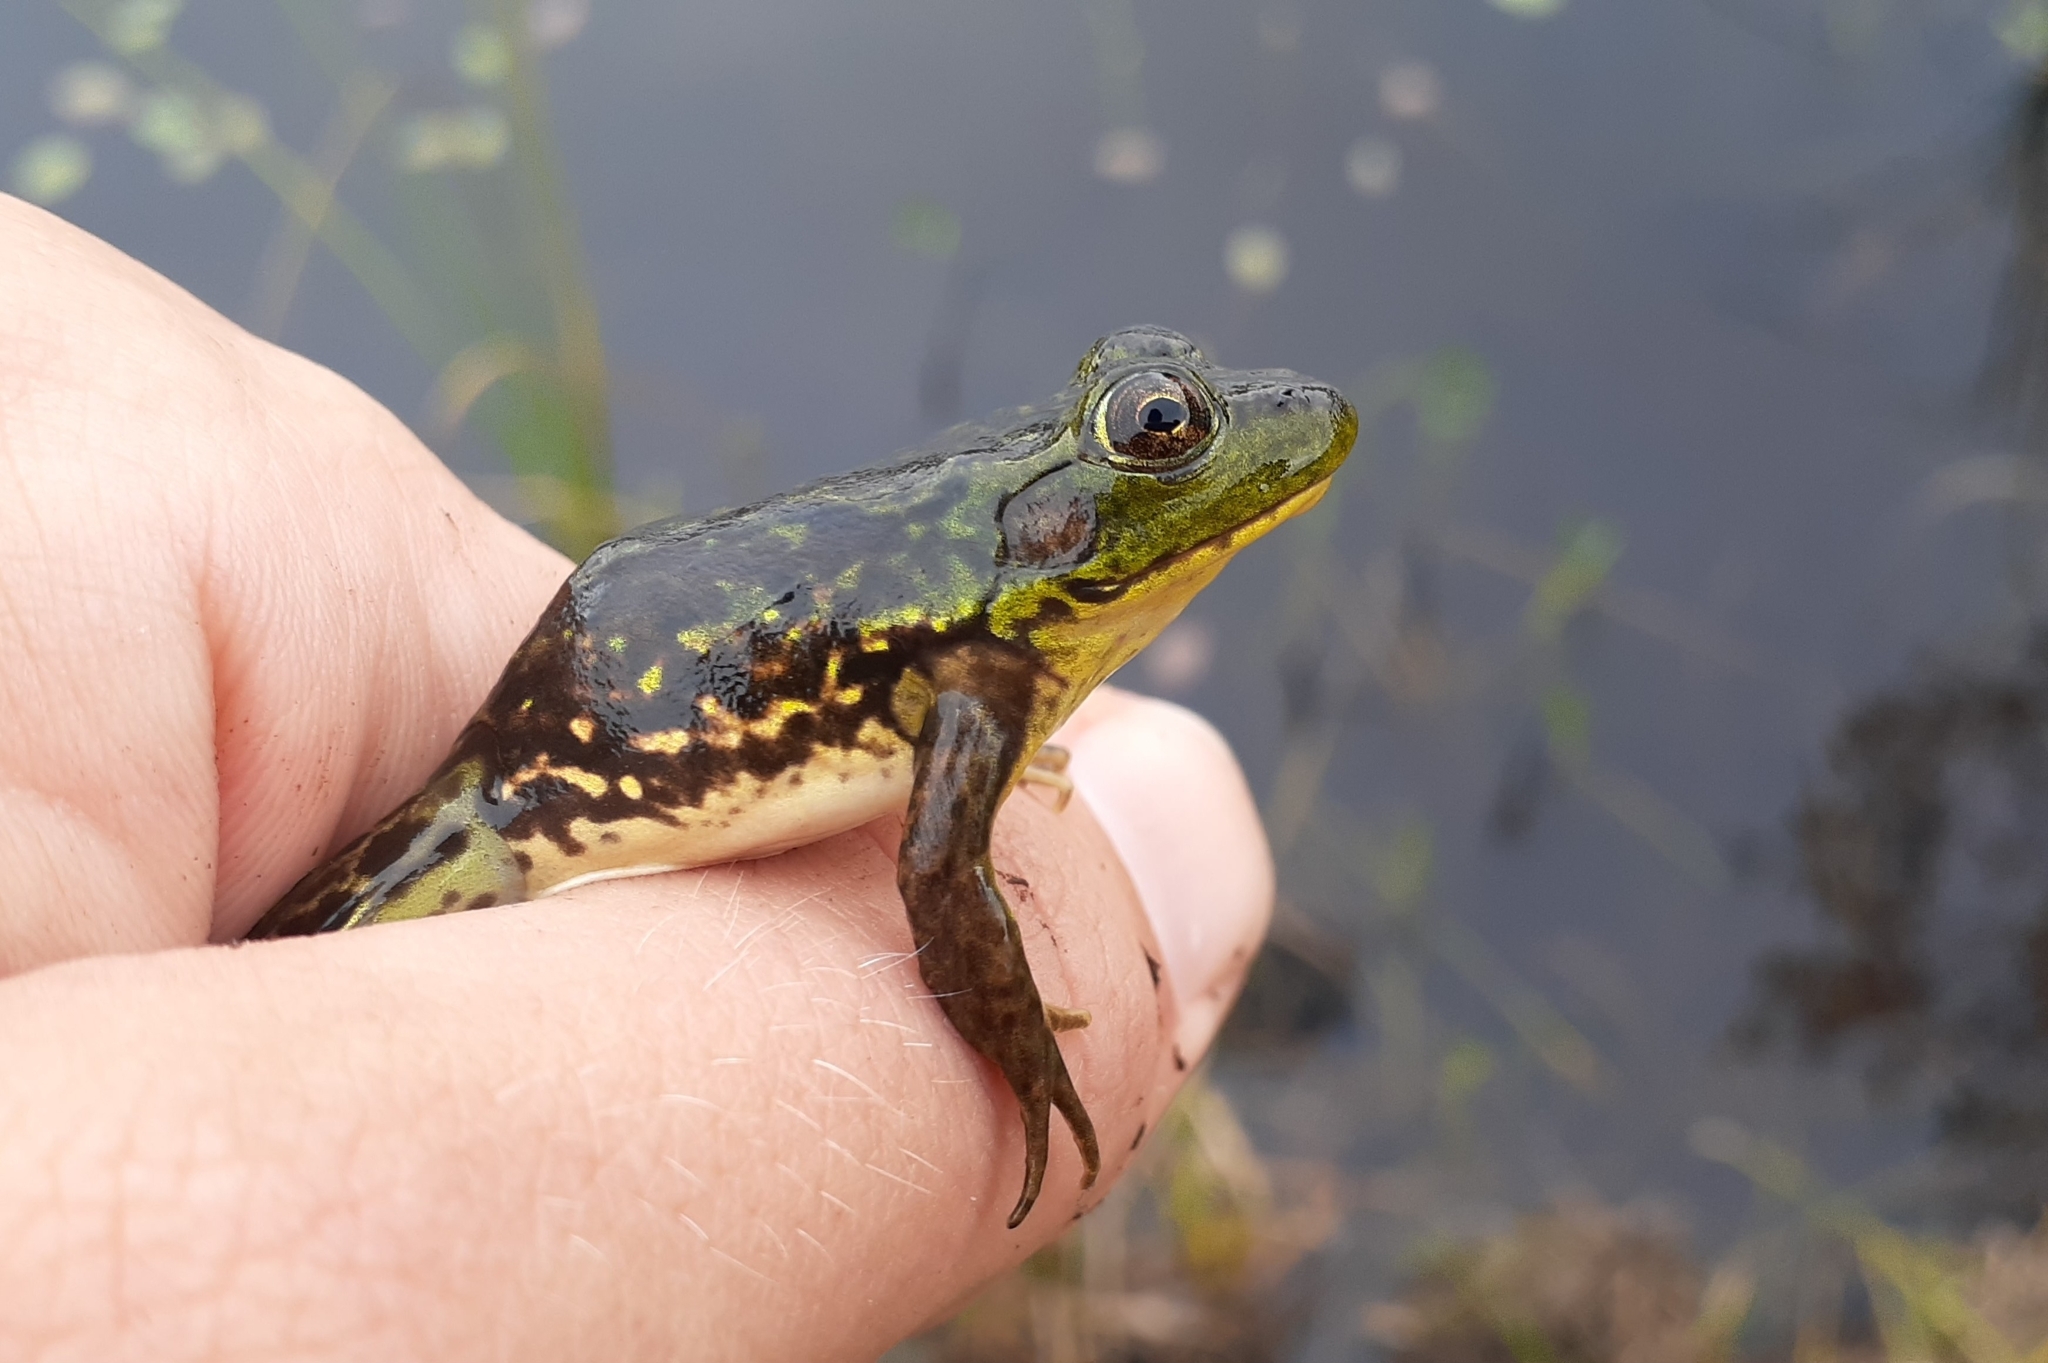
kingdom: Animalia
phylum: Chordata
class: Amphibia
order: Anura
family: Ranidae
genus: Lithobates
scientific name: Lithobates septentrionalis
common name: Mink frog
